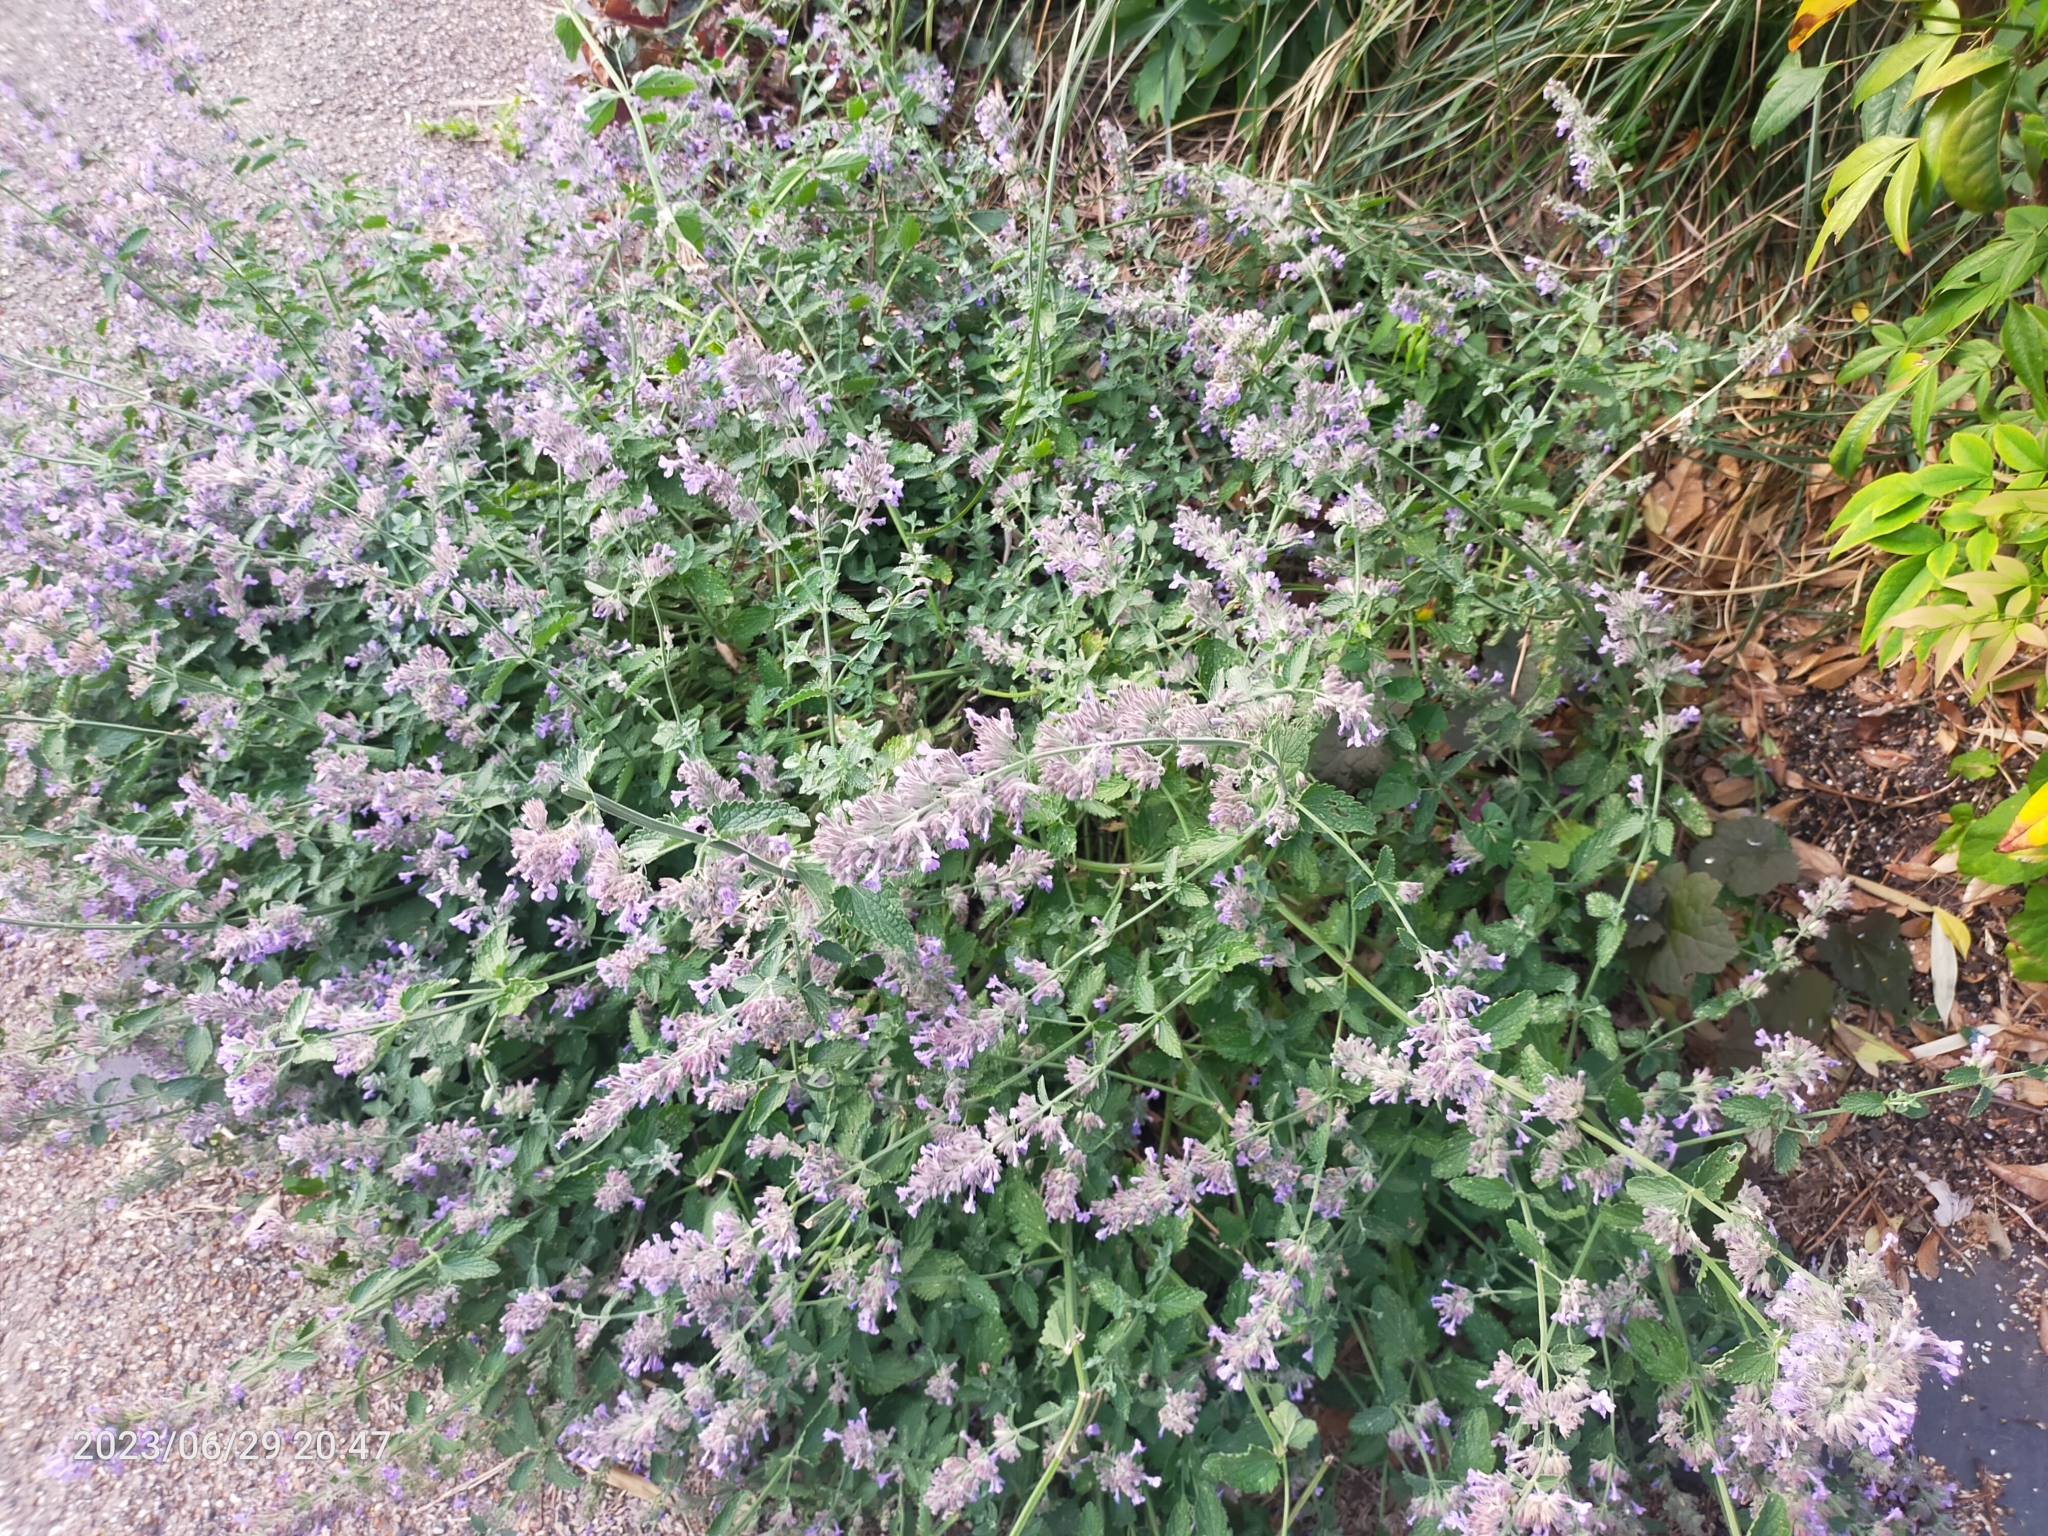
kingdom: Plantae
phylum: Tracheophyta
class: Magnoliopsida
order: Lamiales
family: Lamiaceae
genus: Nepeta
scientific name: Nepeta
